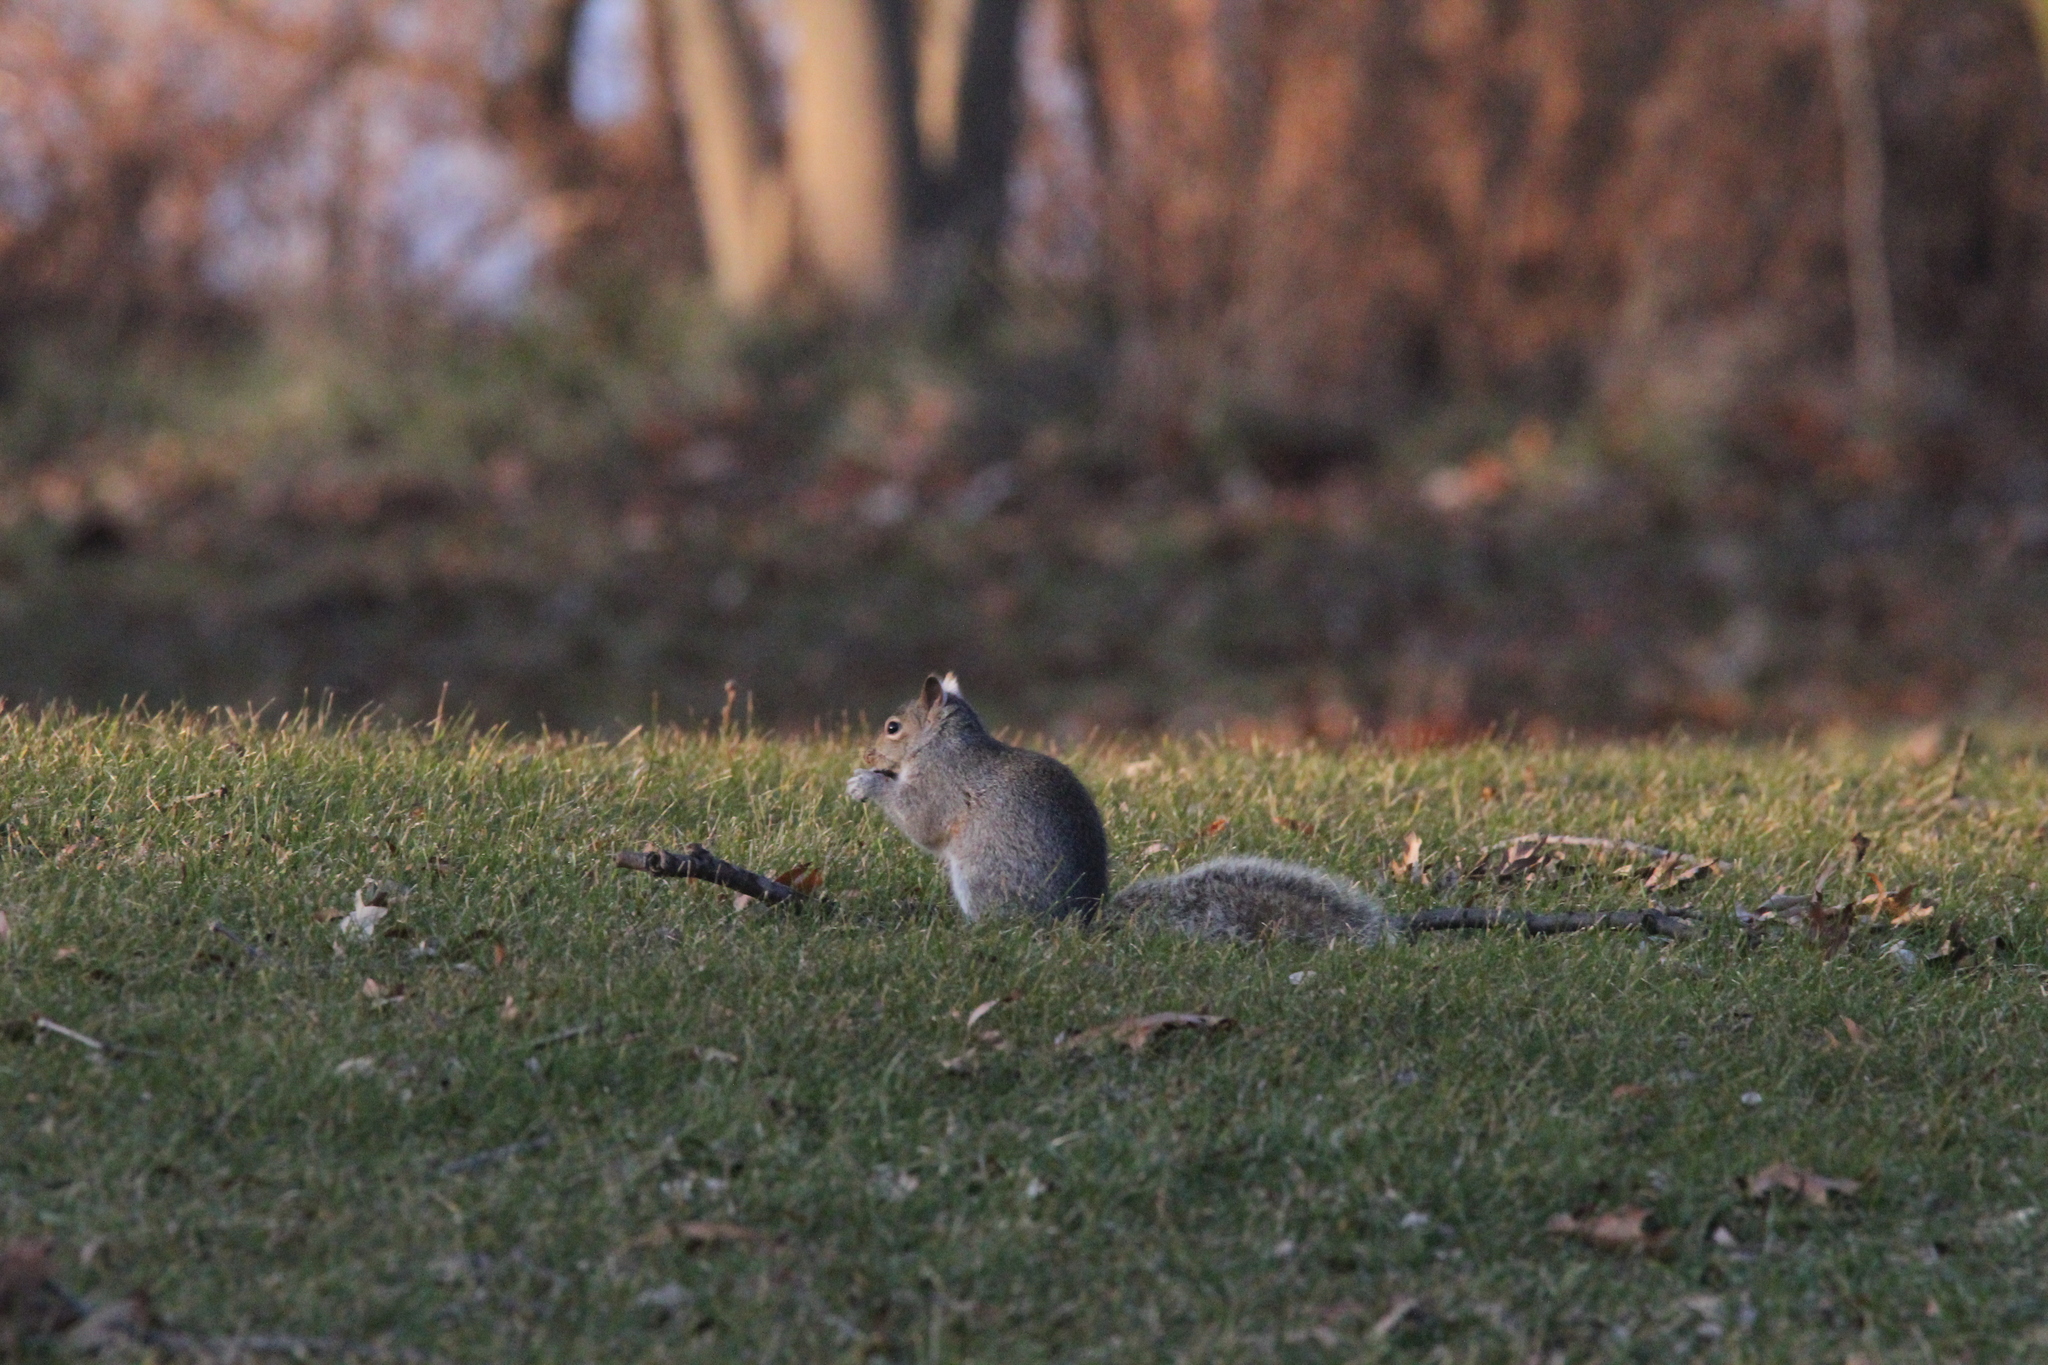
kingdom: Animalia
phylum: Chordata
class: Mammalia
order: Rodentia
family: Sciuridae
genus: Sciurus
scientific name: Sciurus carolinensis
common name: Eastern gray squirrel
